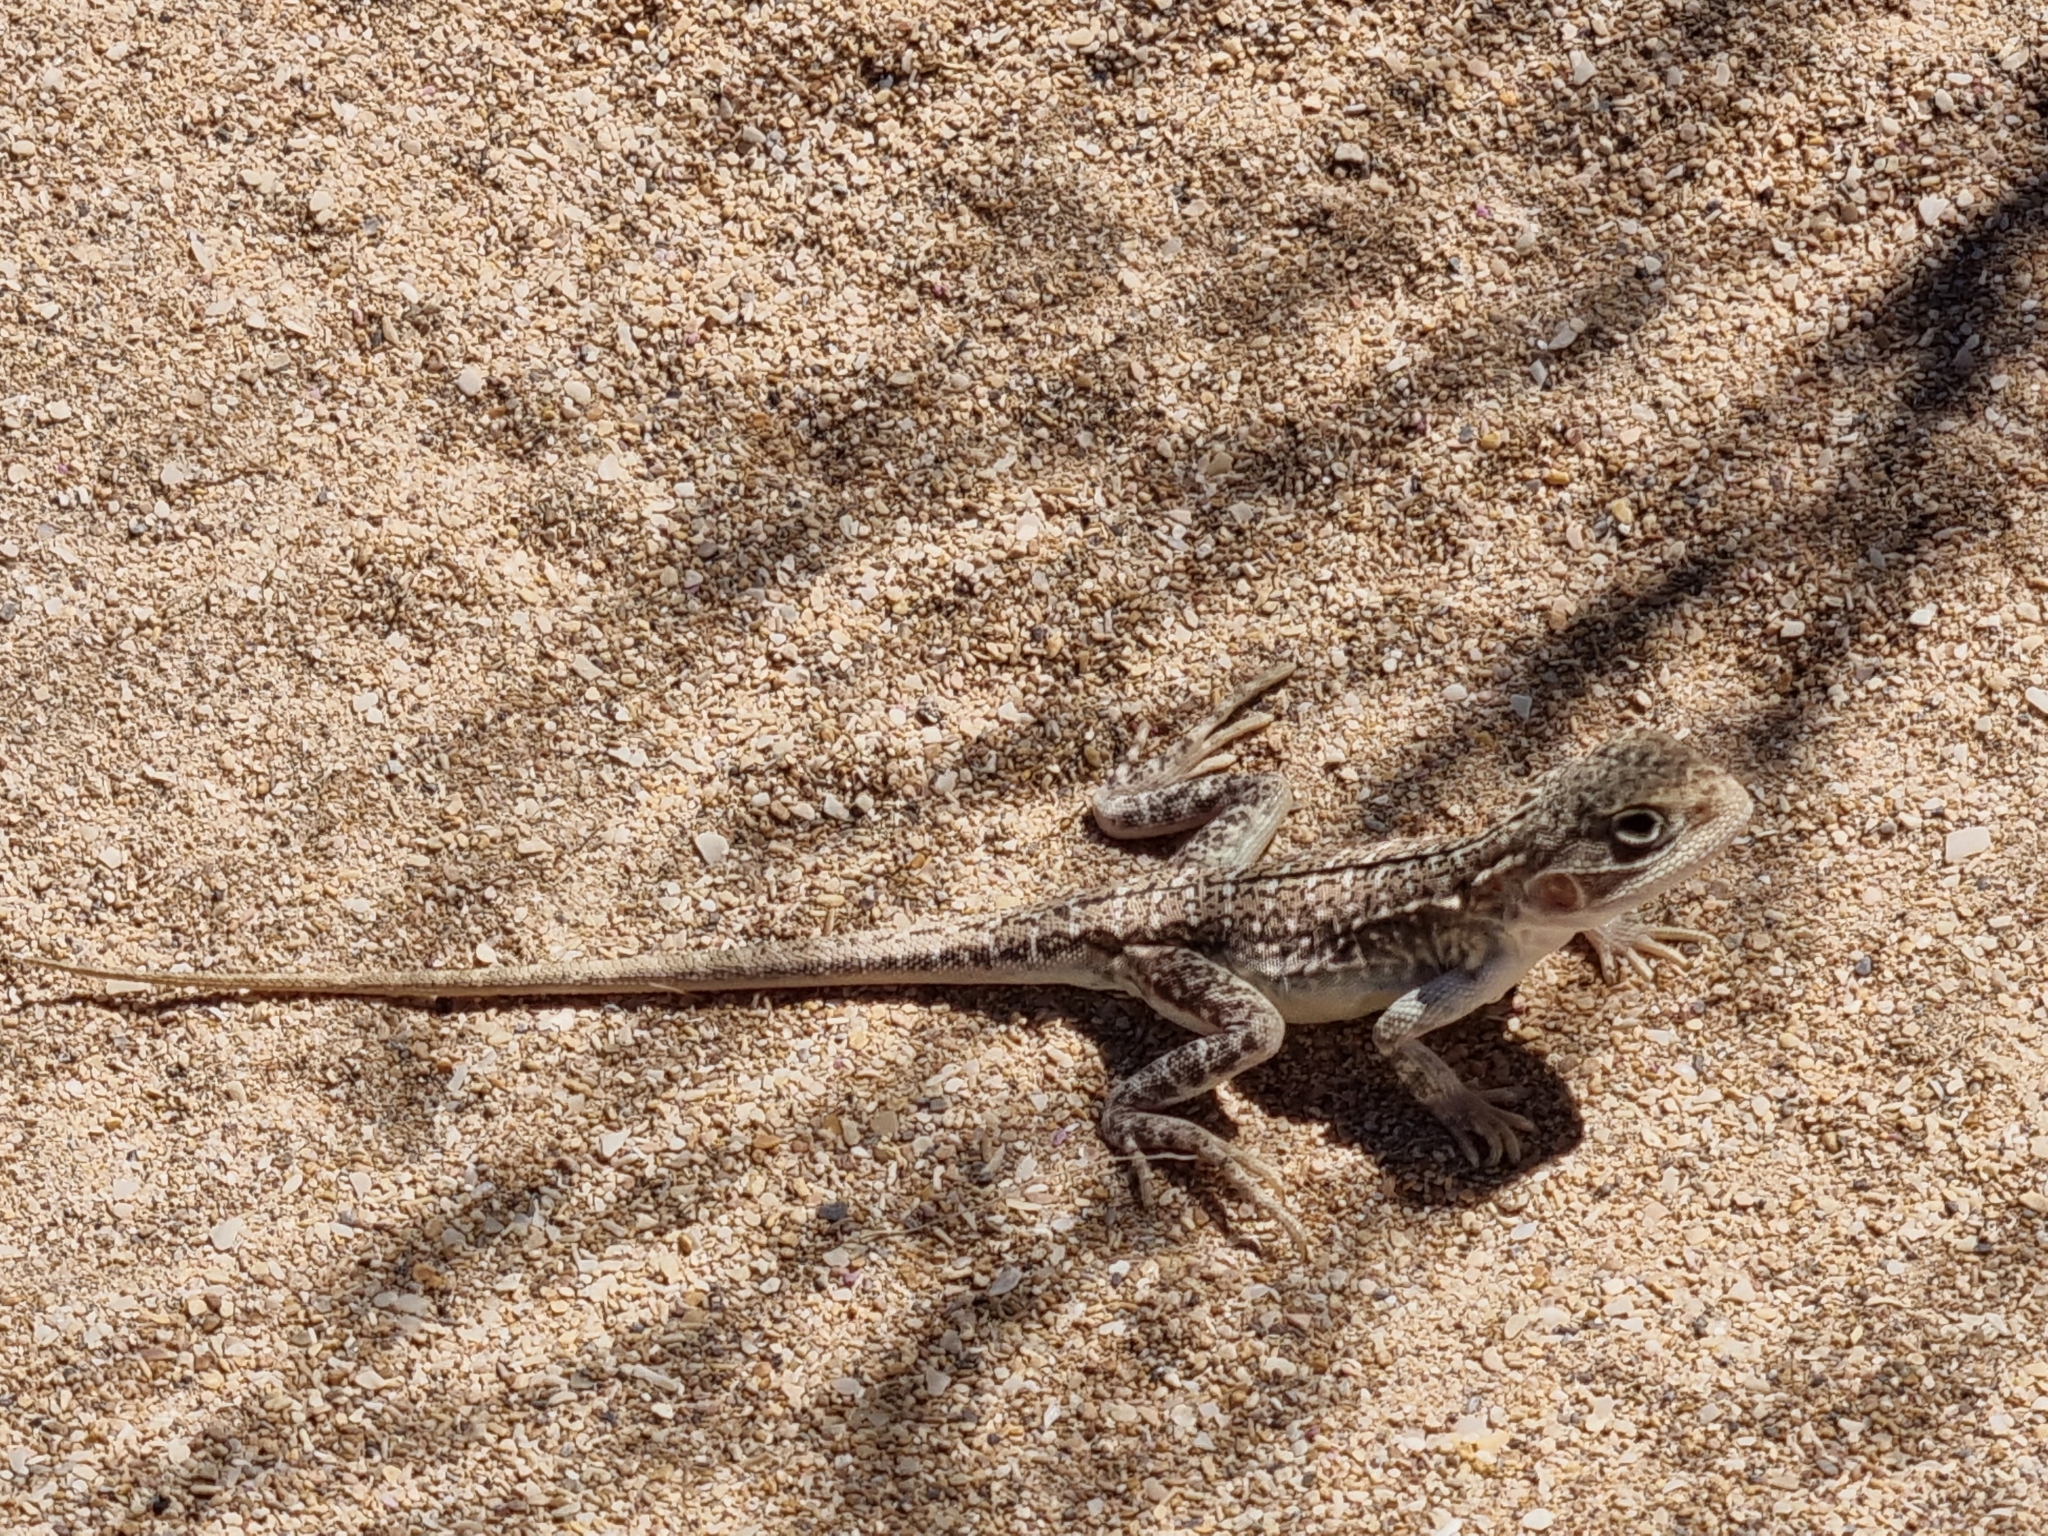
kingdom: Animalia
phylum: Chordata
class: Squamata
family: Agamidae
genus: Ctenophorus
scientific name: Ctenophorus pictus
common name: Painted dragon
